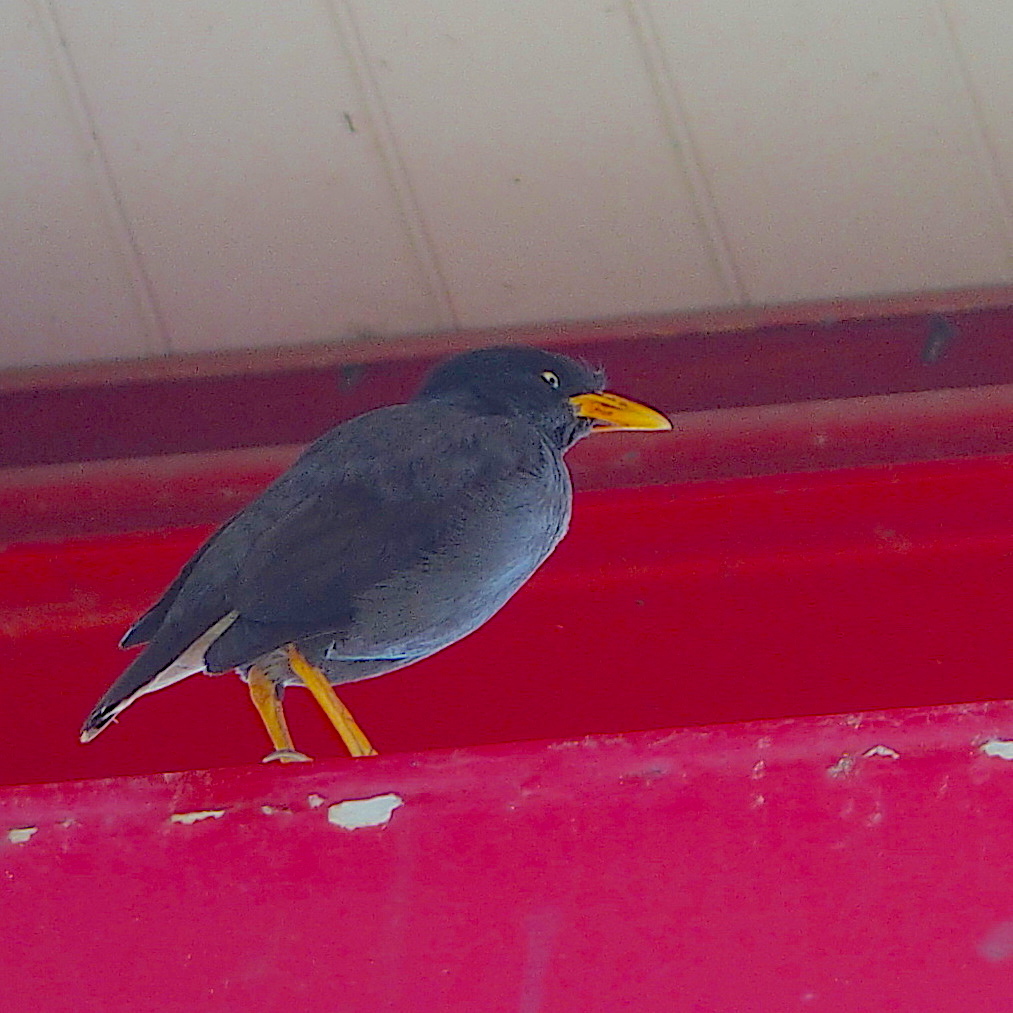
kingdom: Animalia
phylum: Chordata
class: Aves
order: Passeriformes
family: Sturnidae
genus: Acridotheres
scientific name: Acridotheres javanicus
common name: Javan myna
